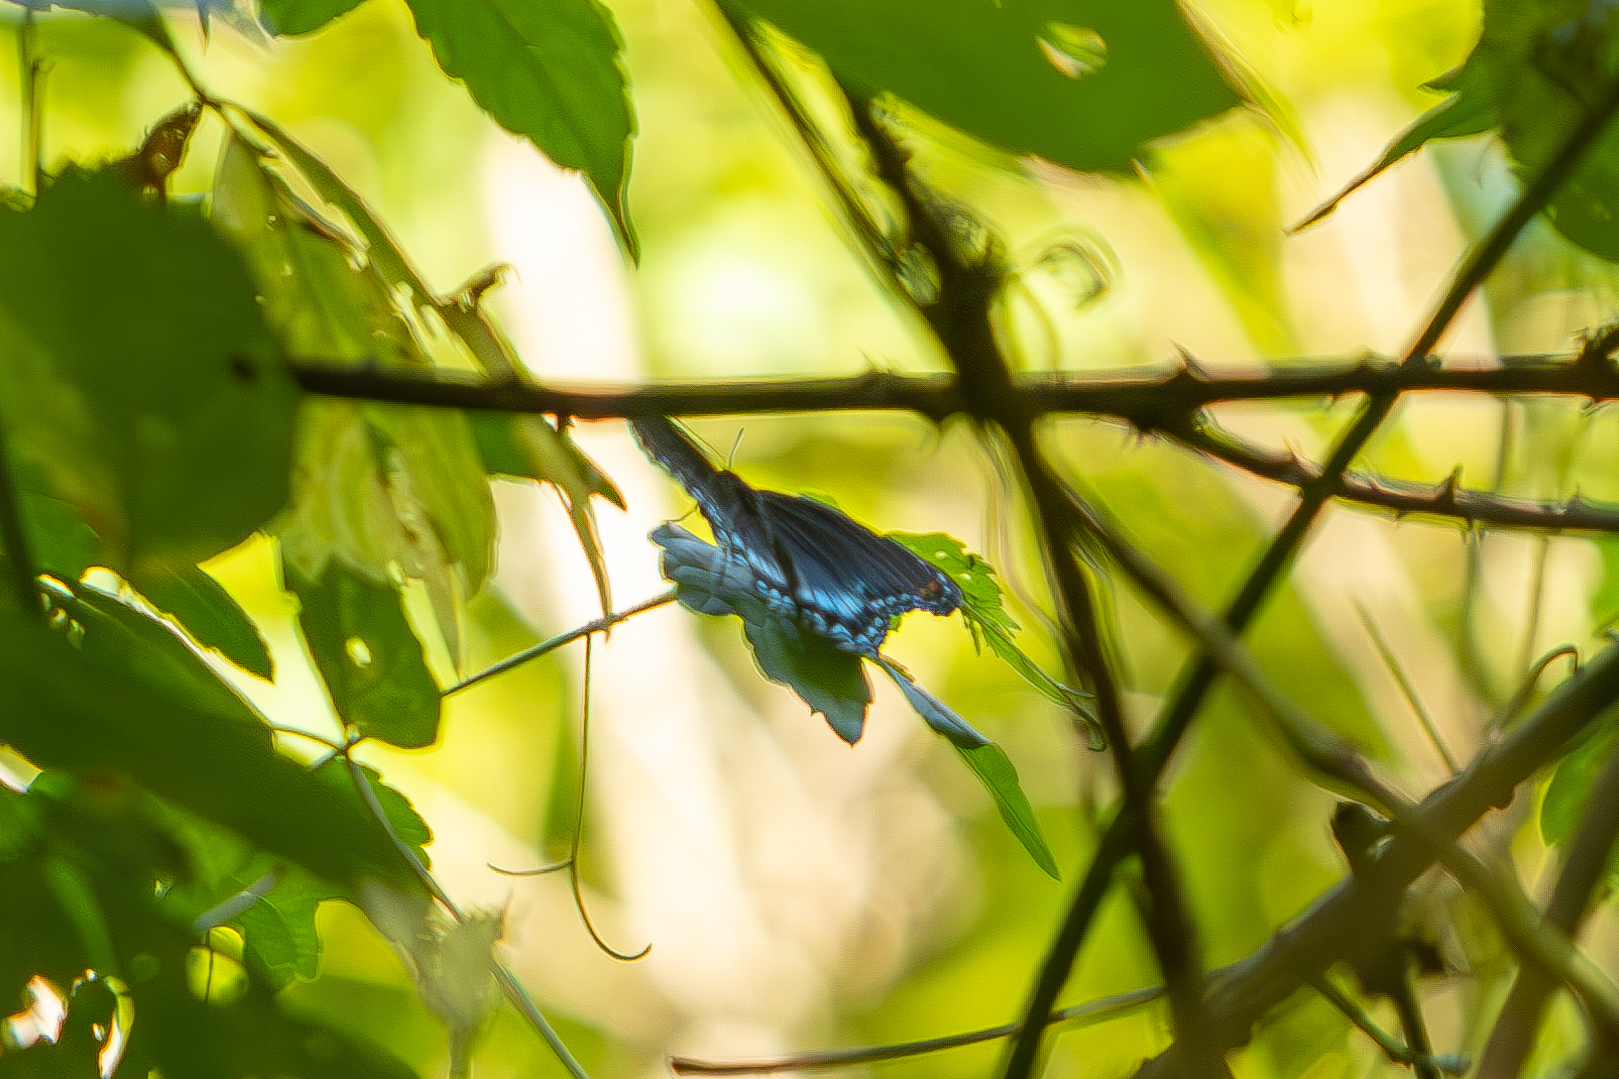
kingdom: Animalia
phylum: Arthropoda
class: Insecta
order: Lepidoptera
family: Nymphalidae
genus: Limenitis
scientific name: Limenitis astyanax
